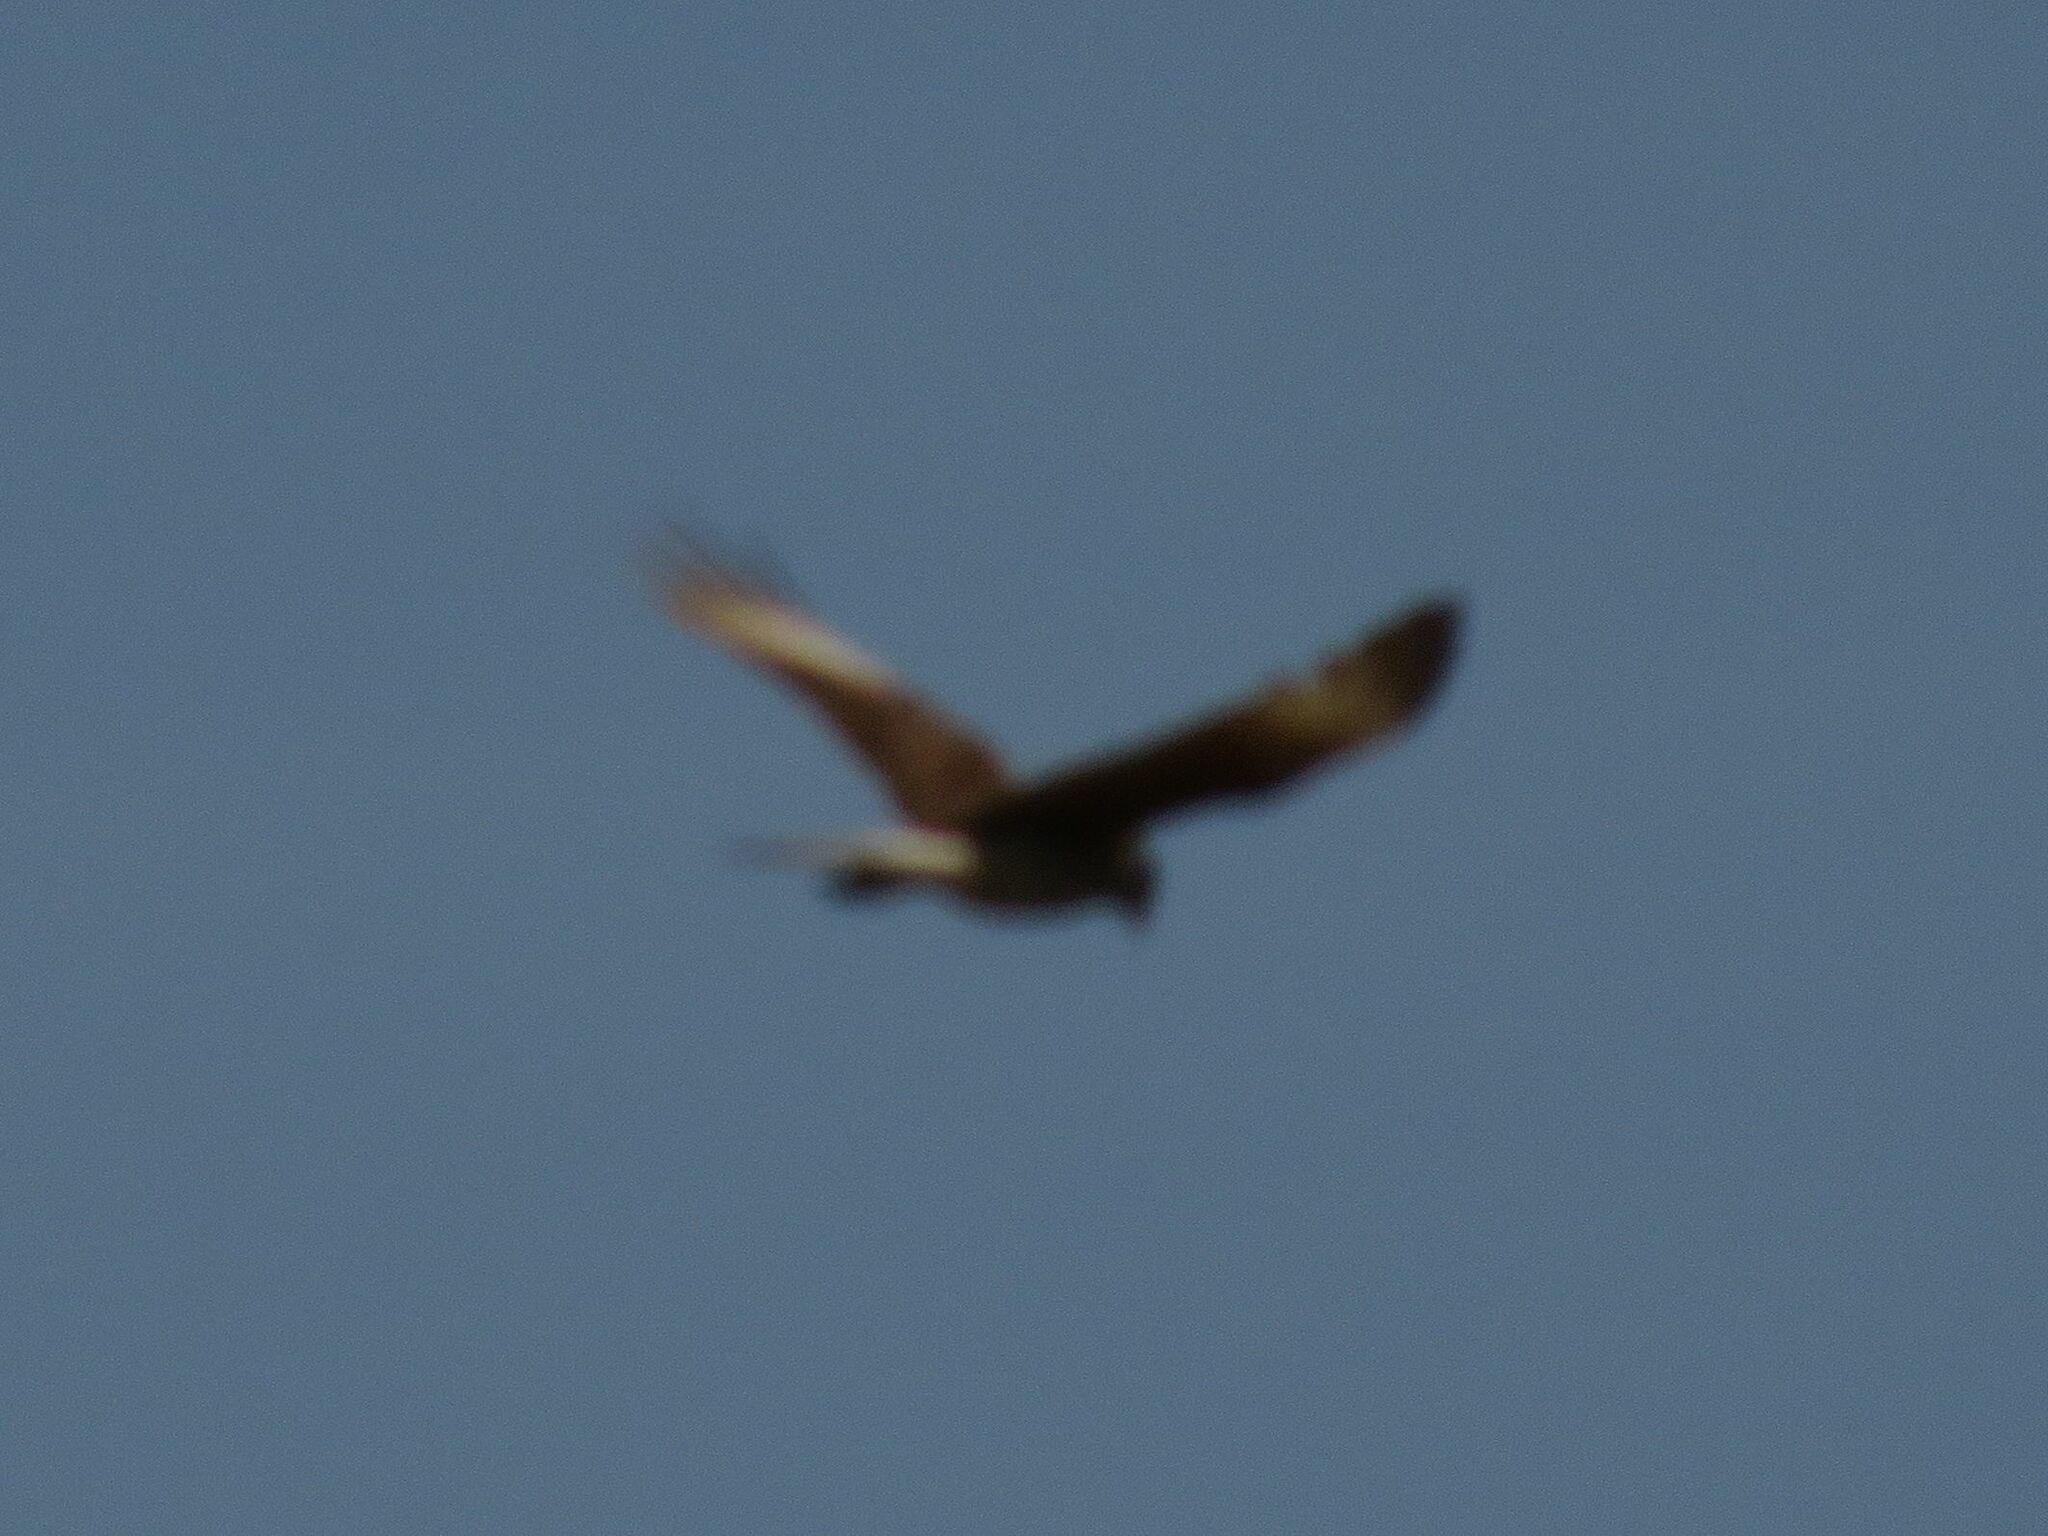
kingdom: Animalia
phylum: Chordata
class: Aves
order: Falconiformes
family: Falconidae
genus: Daptrius
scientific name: Daptrius
